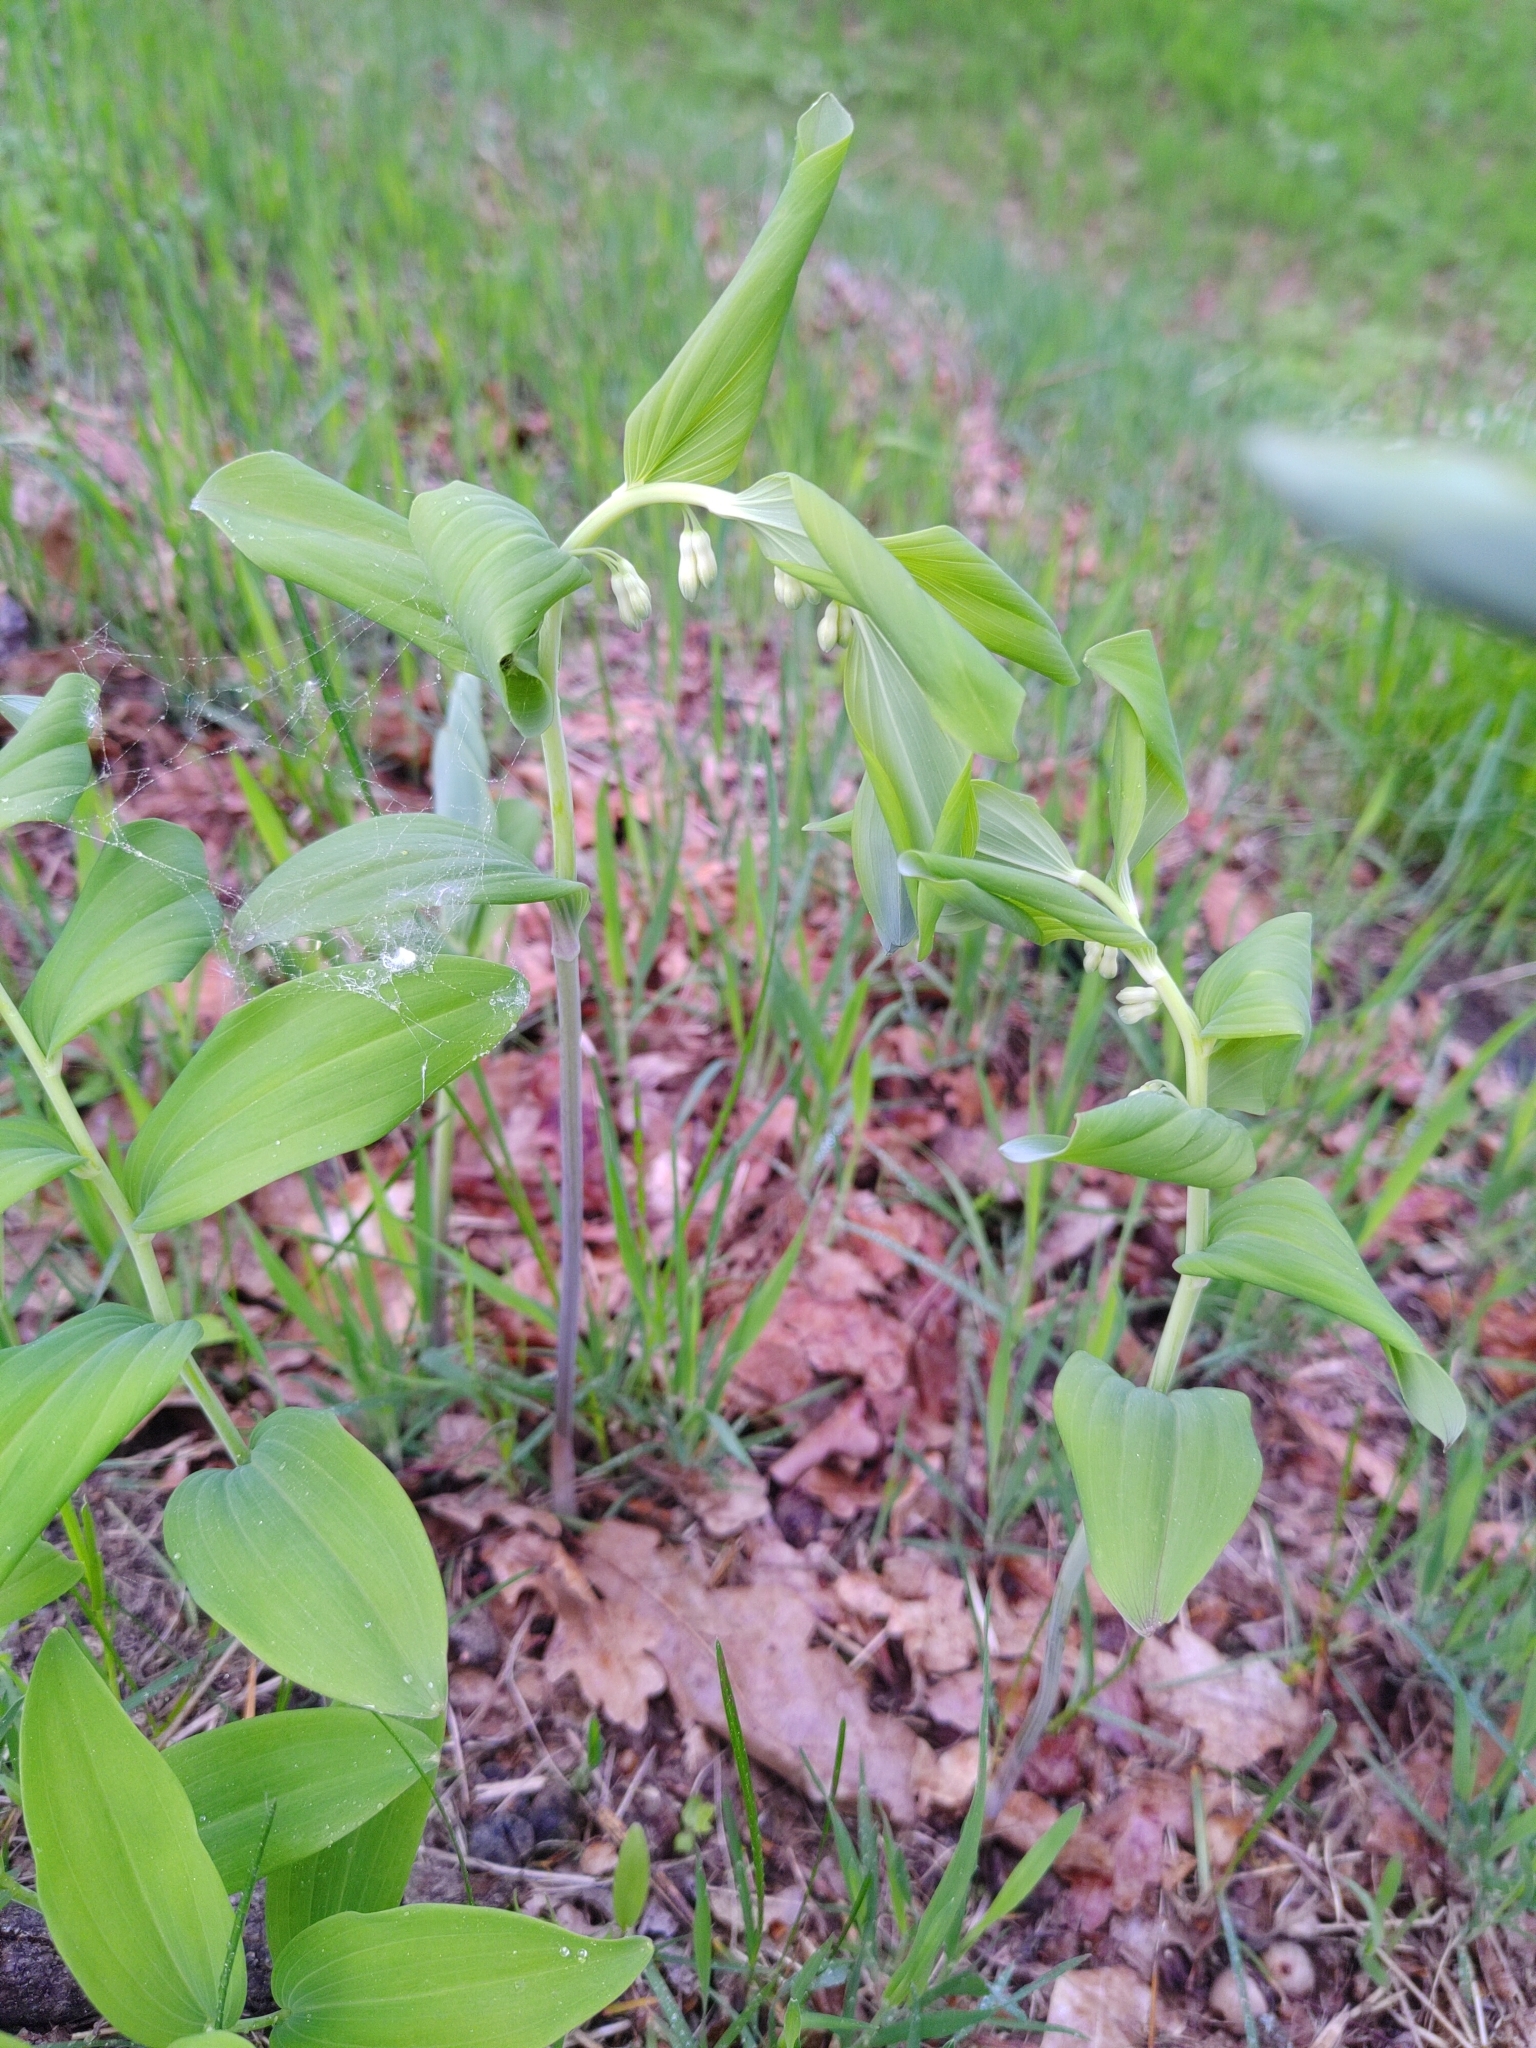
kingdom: Plantae
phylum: Tracheophyta
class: Liliopsida
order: Asparagales
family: Asparagaceae
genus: Polygonatum
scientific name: Polygonatum multiflorum
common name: Solomon's-seal
